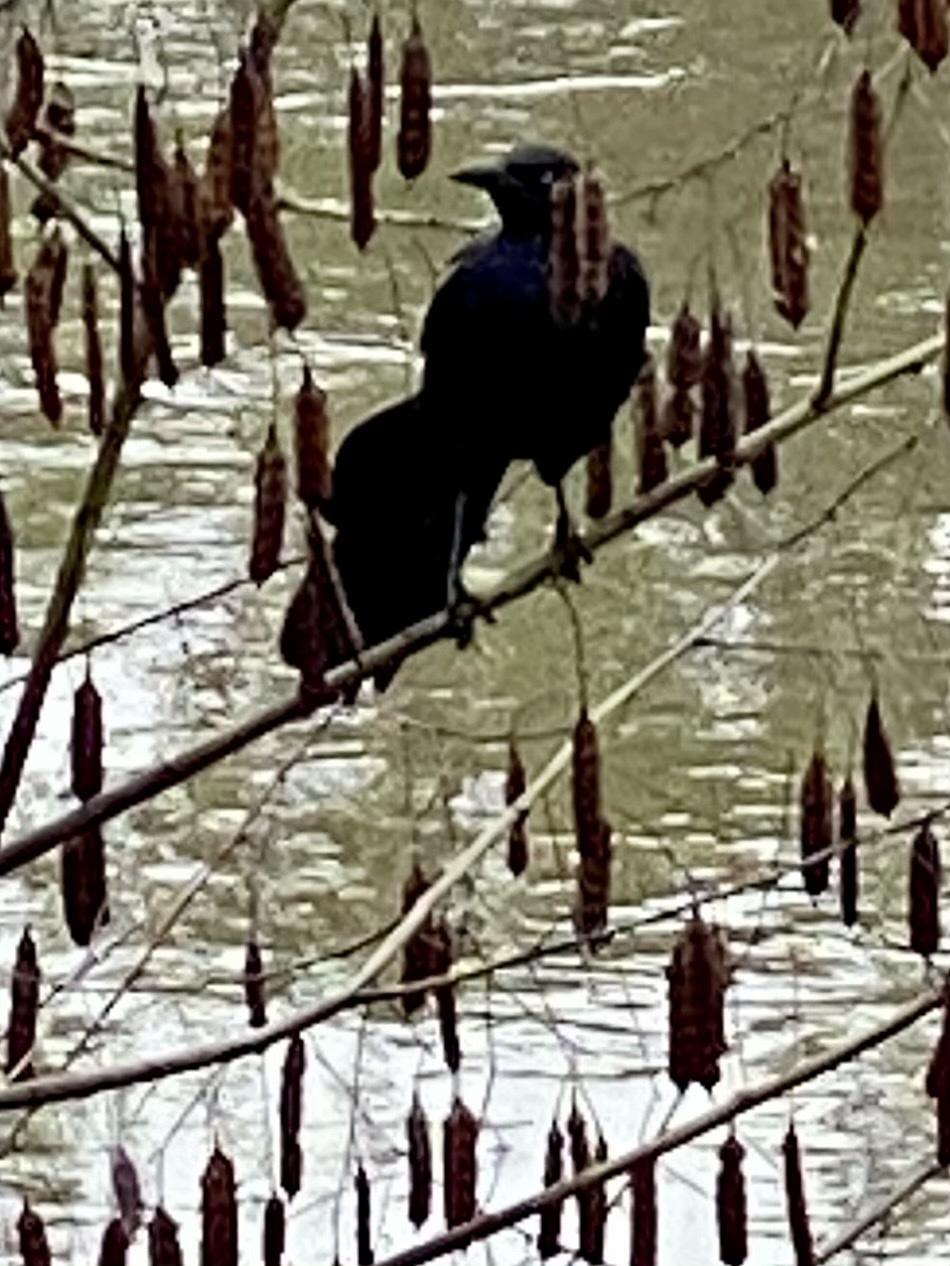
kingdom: Animalia
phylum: Chordata
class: Aves
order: Passeriformes
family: Icteridae
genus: Quiscalus
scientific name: Quiscalus mexicanus
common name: Great-tailed grackle
